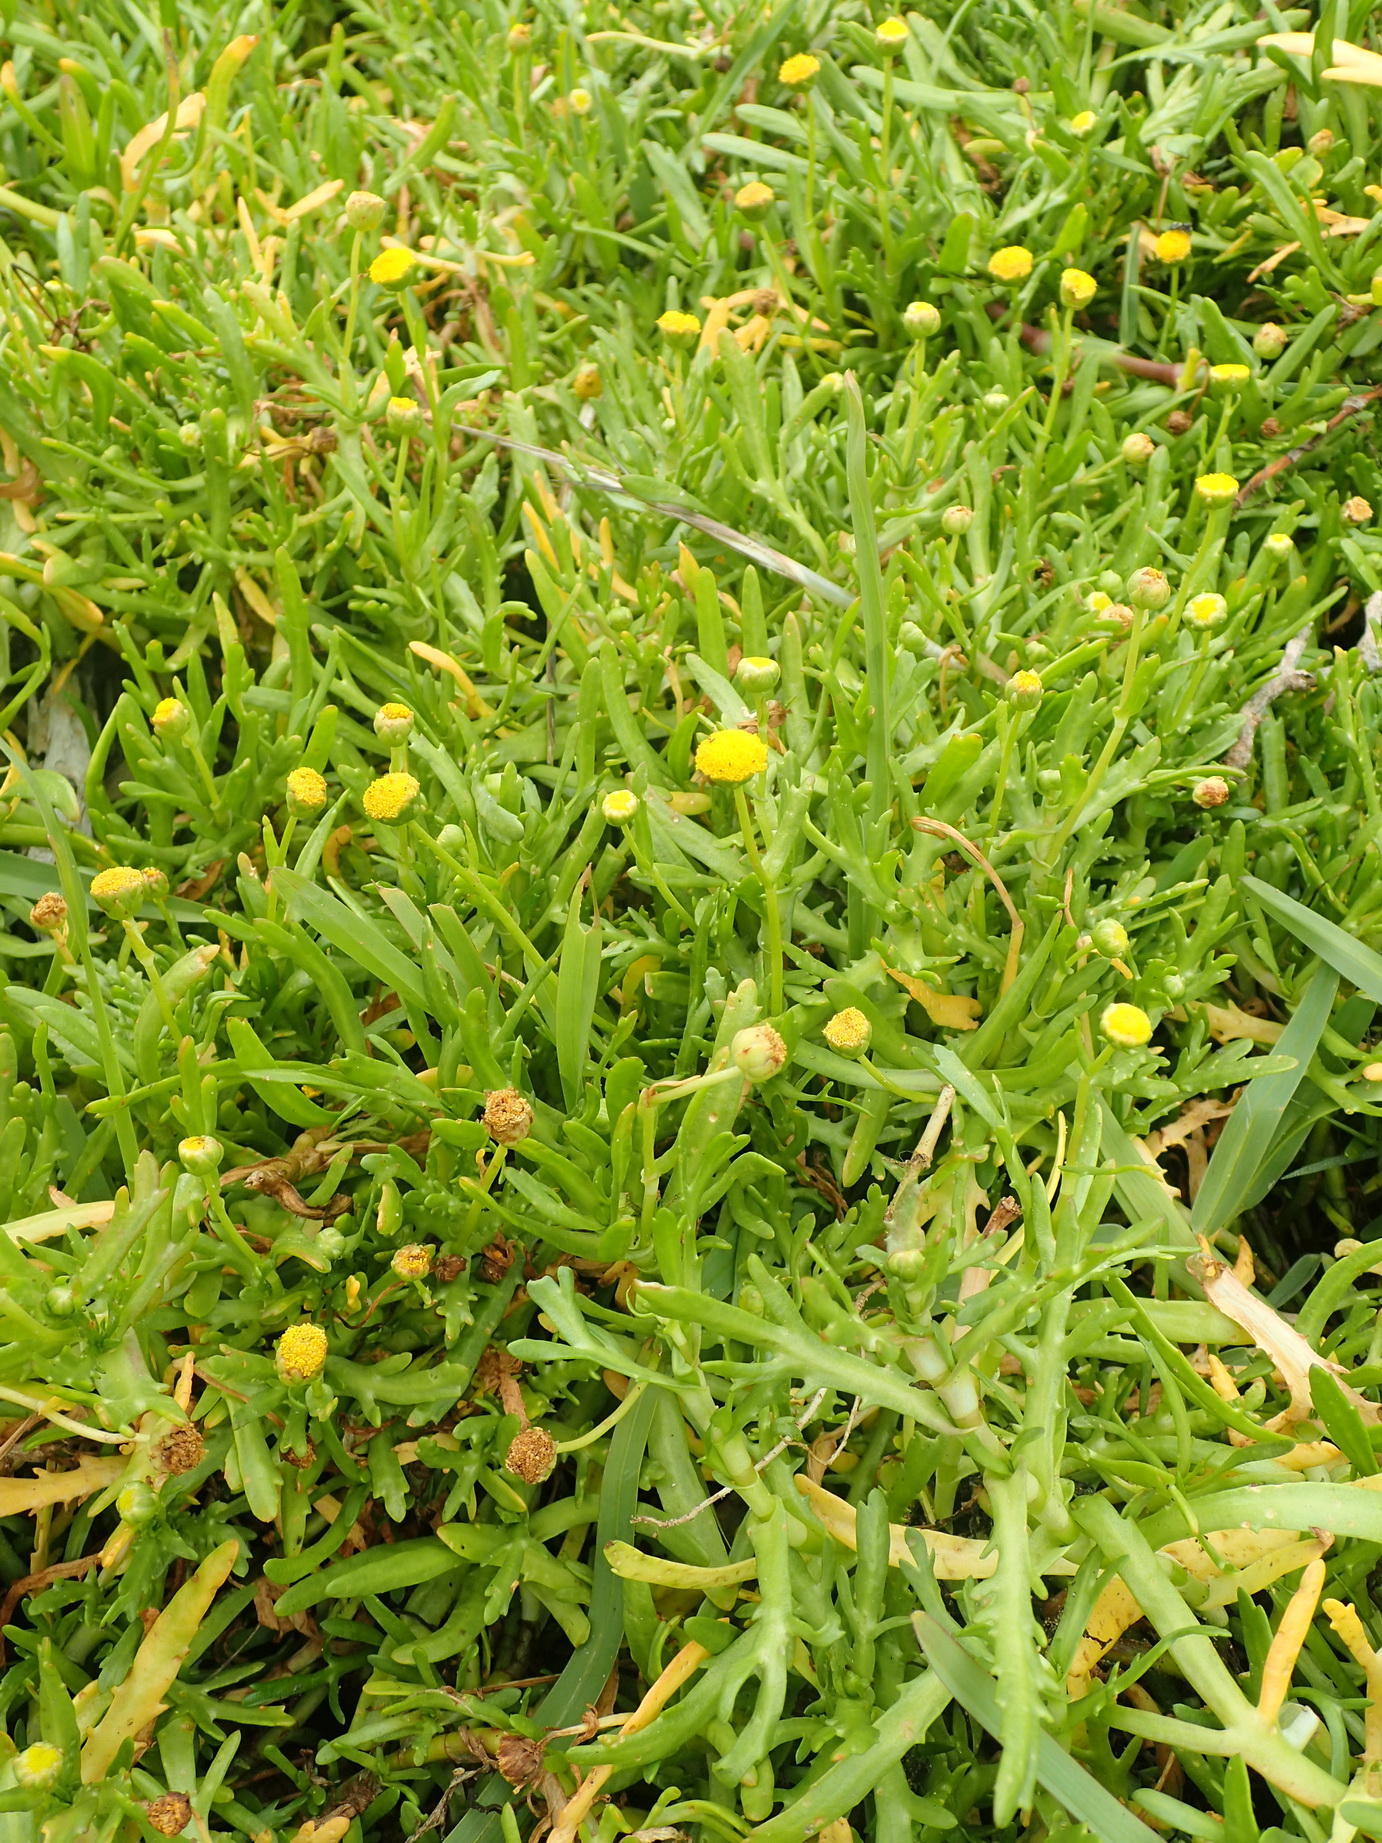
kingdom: Plantae
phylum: Tracheophyta
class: Magnoliopsida
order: Asterales
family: Asteraceae
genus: Cotula
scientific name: Cotula coronopifolia
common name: Buttonweed
